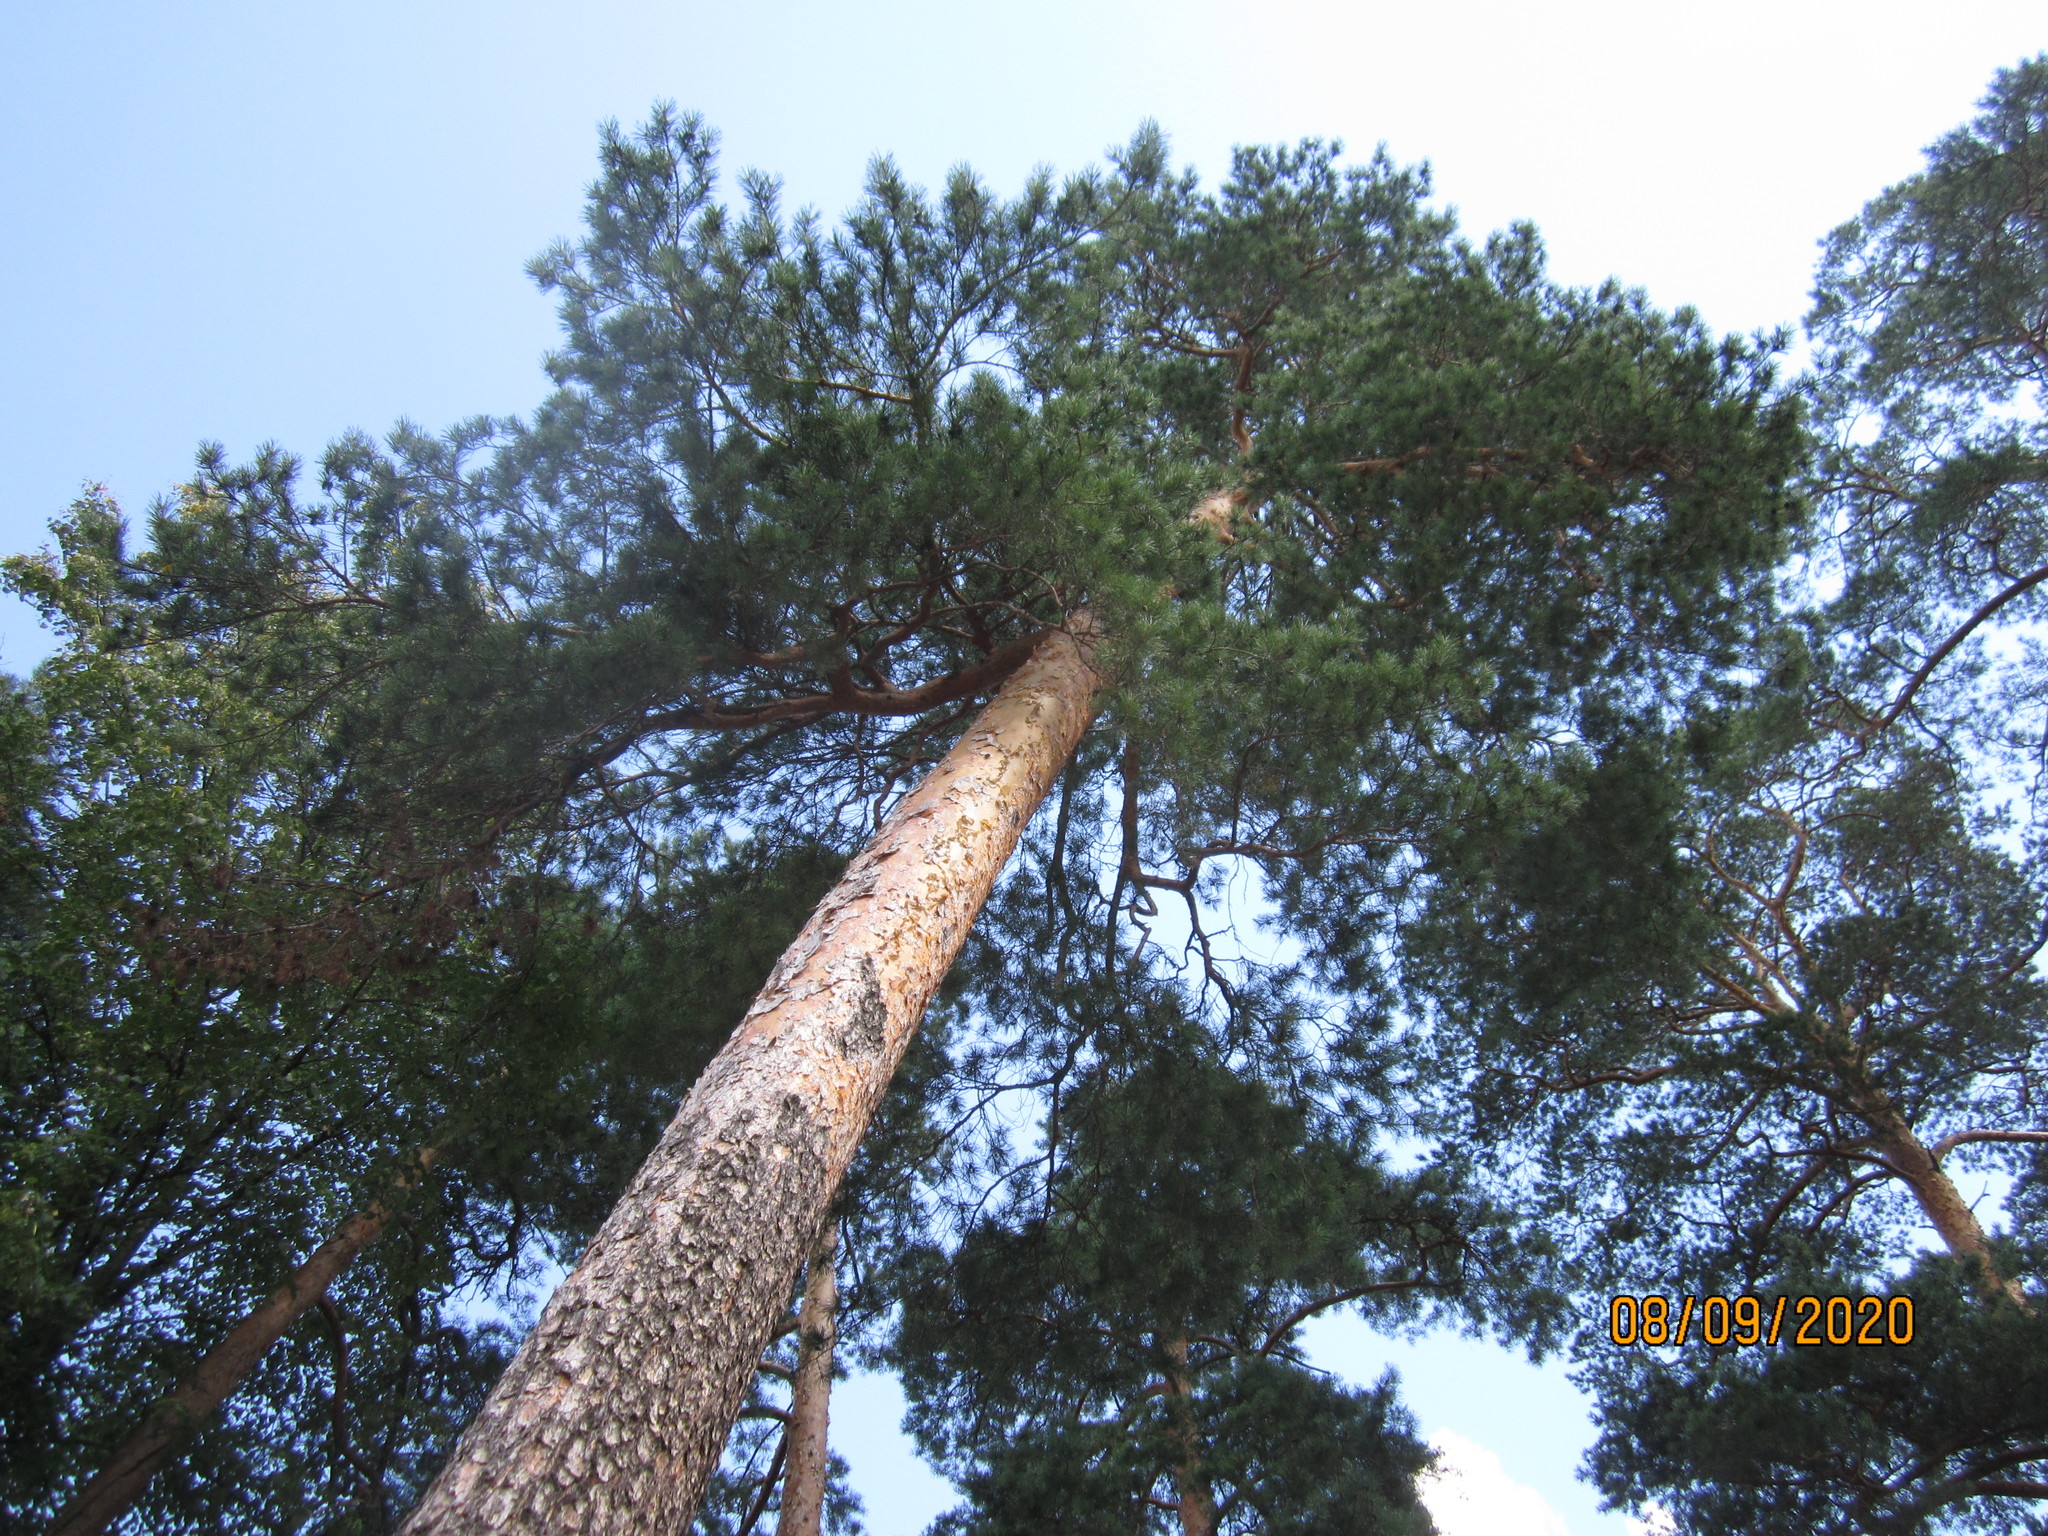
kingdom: Plantae
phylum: Tracheophyta
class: Pinopsida
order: Pinales
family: Pinaceae
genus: Pinus
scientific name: Pinus sylvestris
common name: Scots pine
